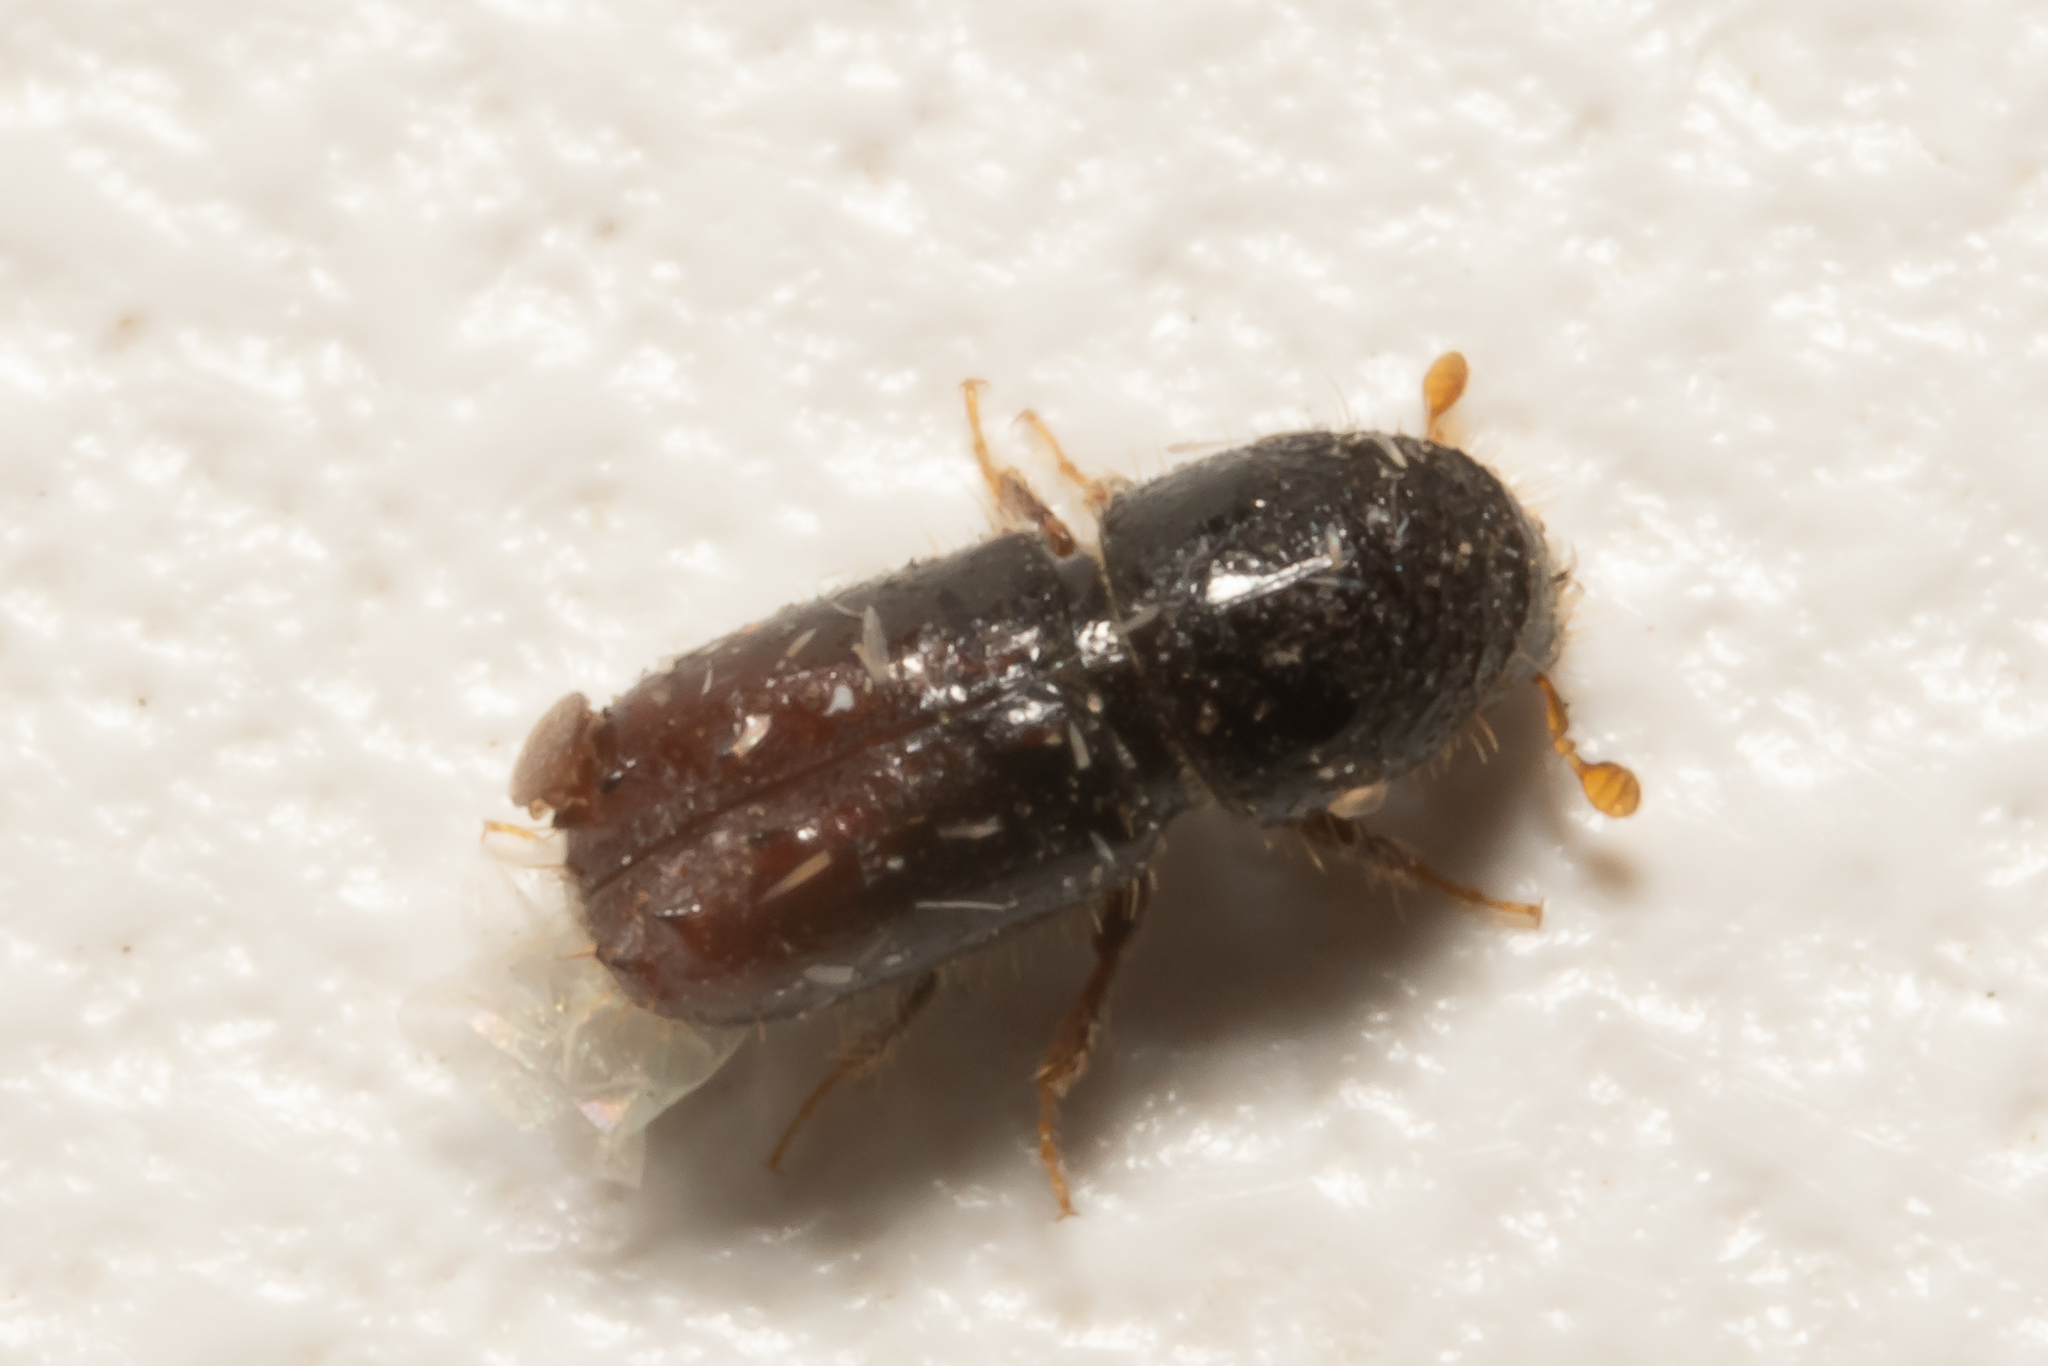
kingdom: Animalia
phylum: Arthropoda
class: Insecta
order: Coleoptera
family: Curculionidae
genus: Pityogenes
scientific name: Pityogenes chalcographus
